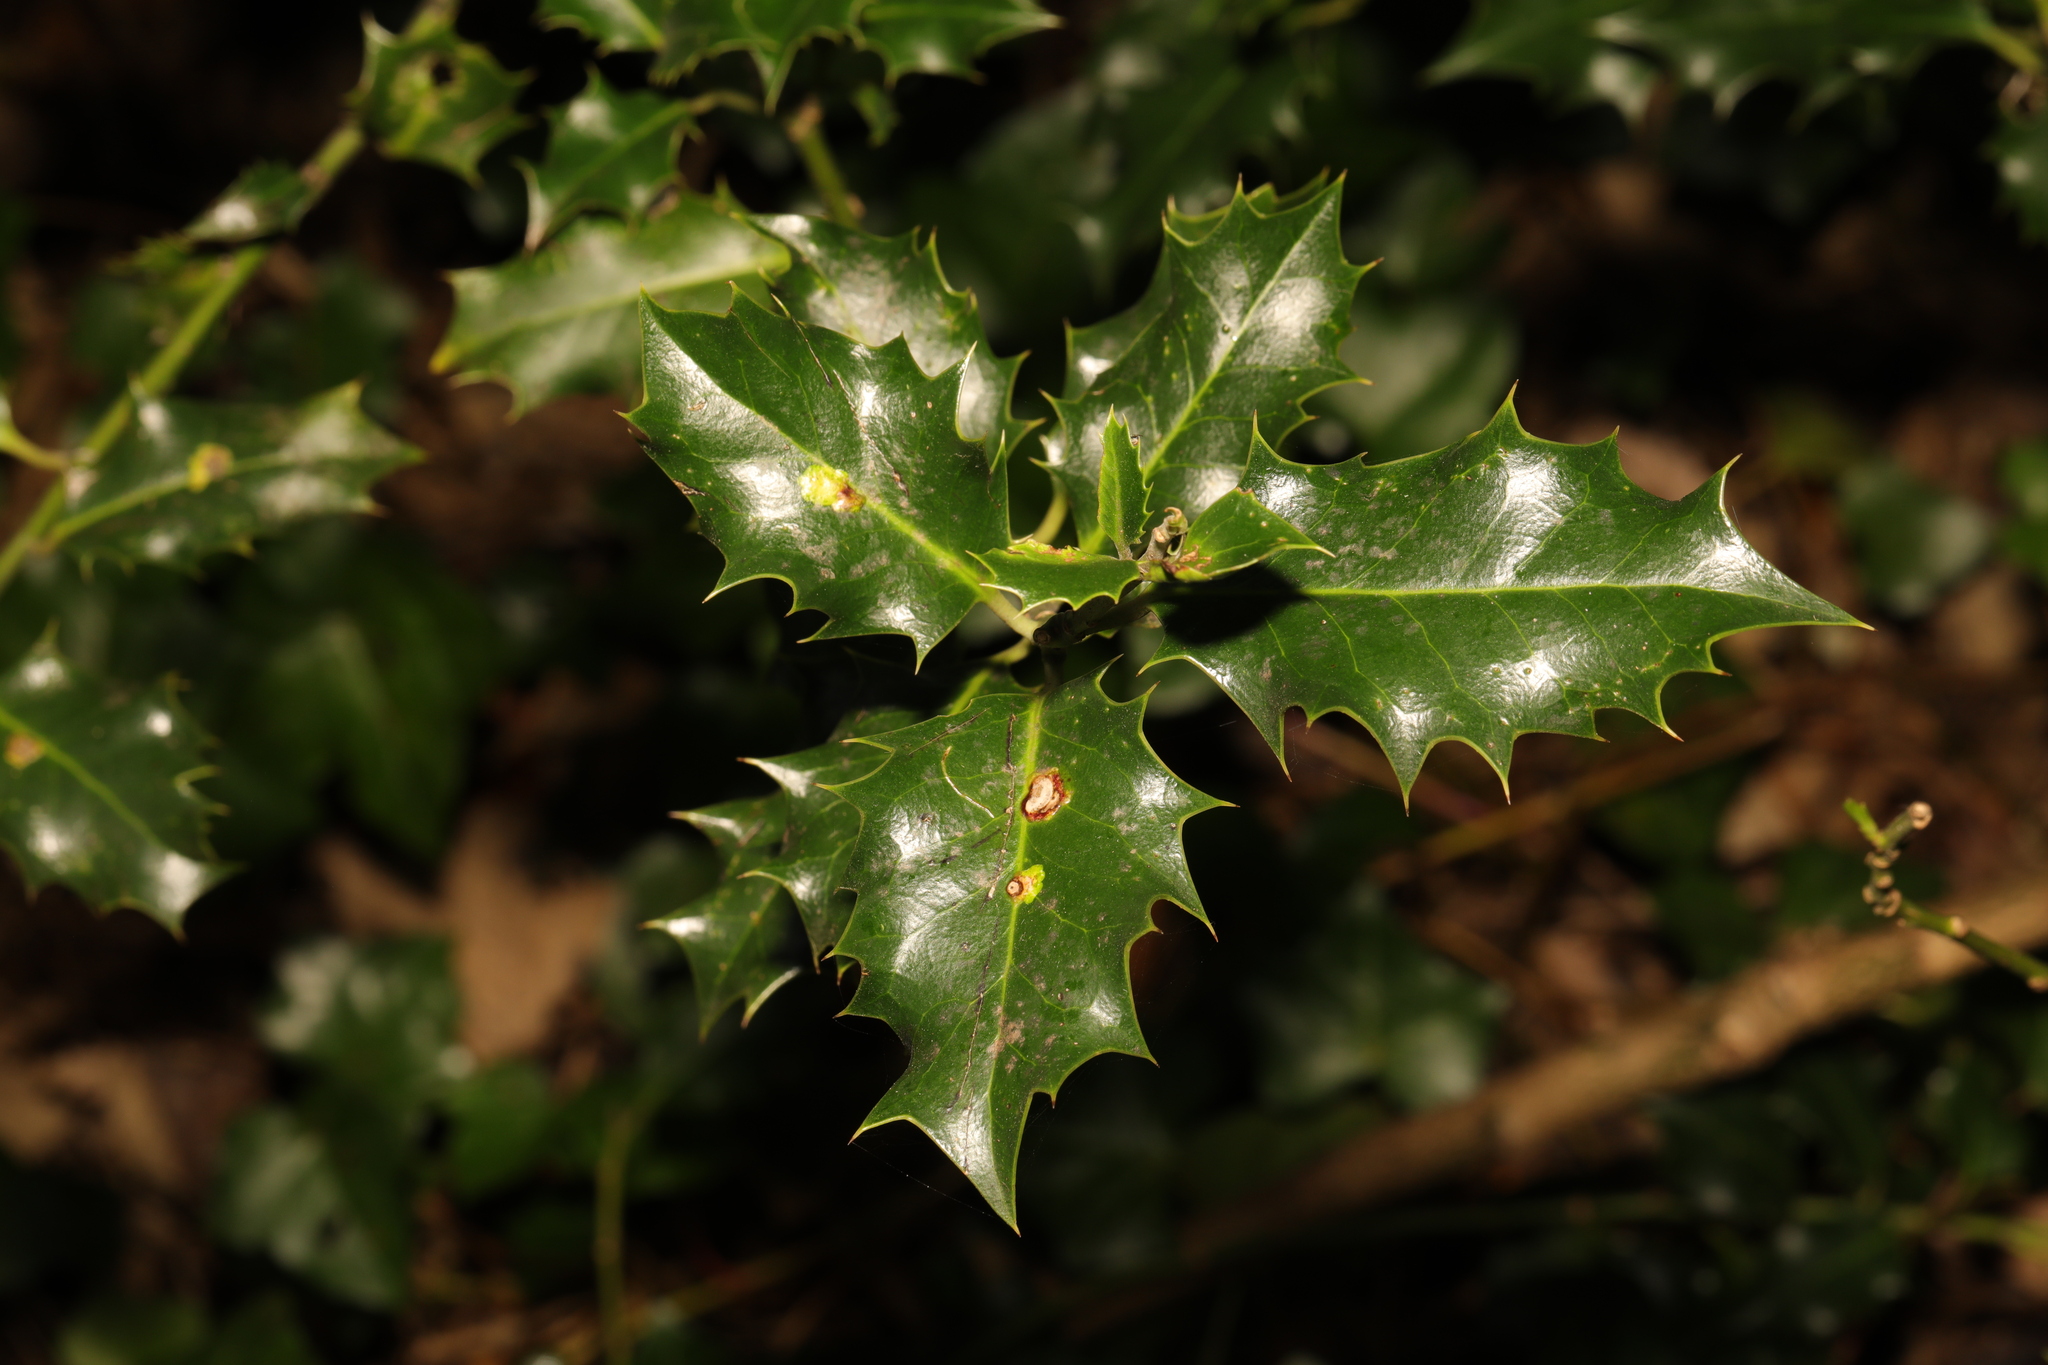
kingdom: Plantae
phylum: Tracheophyta
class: Magnoliopsida
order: Aquifoliales
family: Aquifoliaceae
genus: Ilex
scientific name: Ilex aquifolium
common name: English holly
